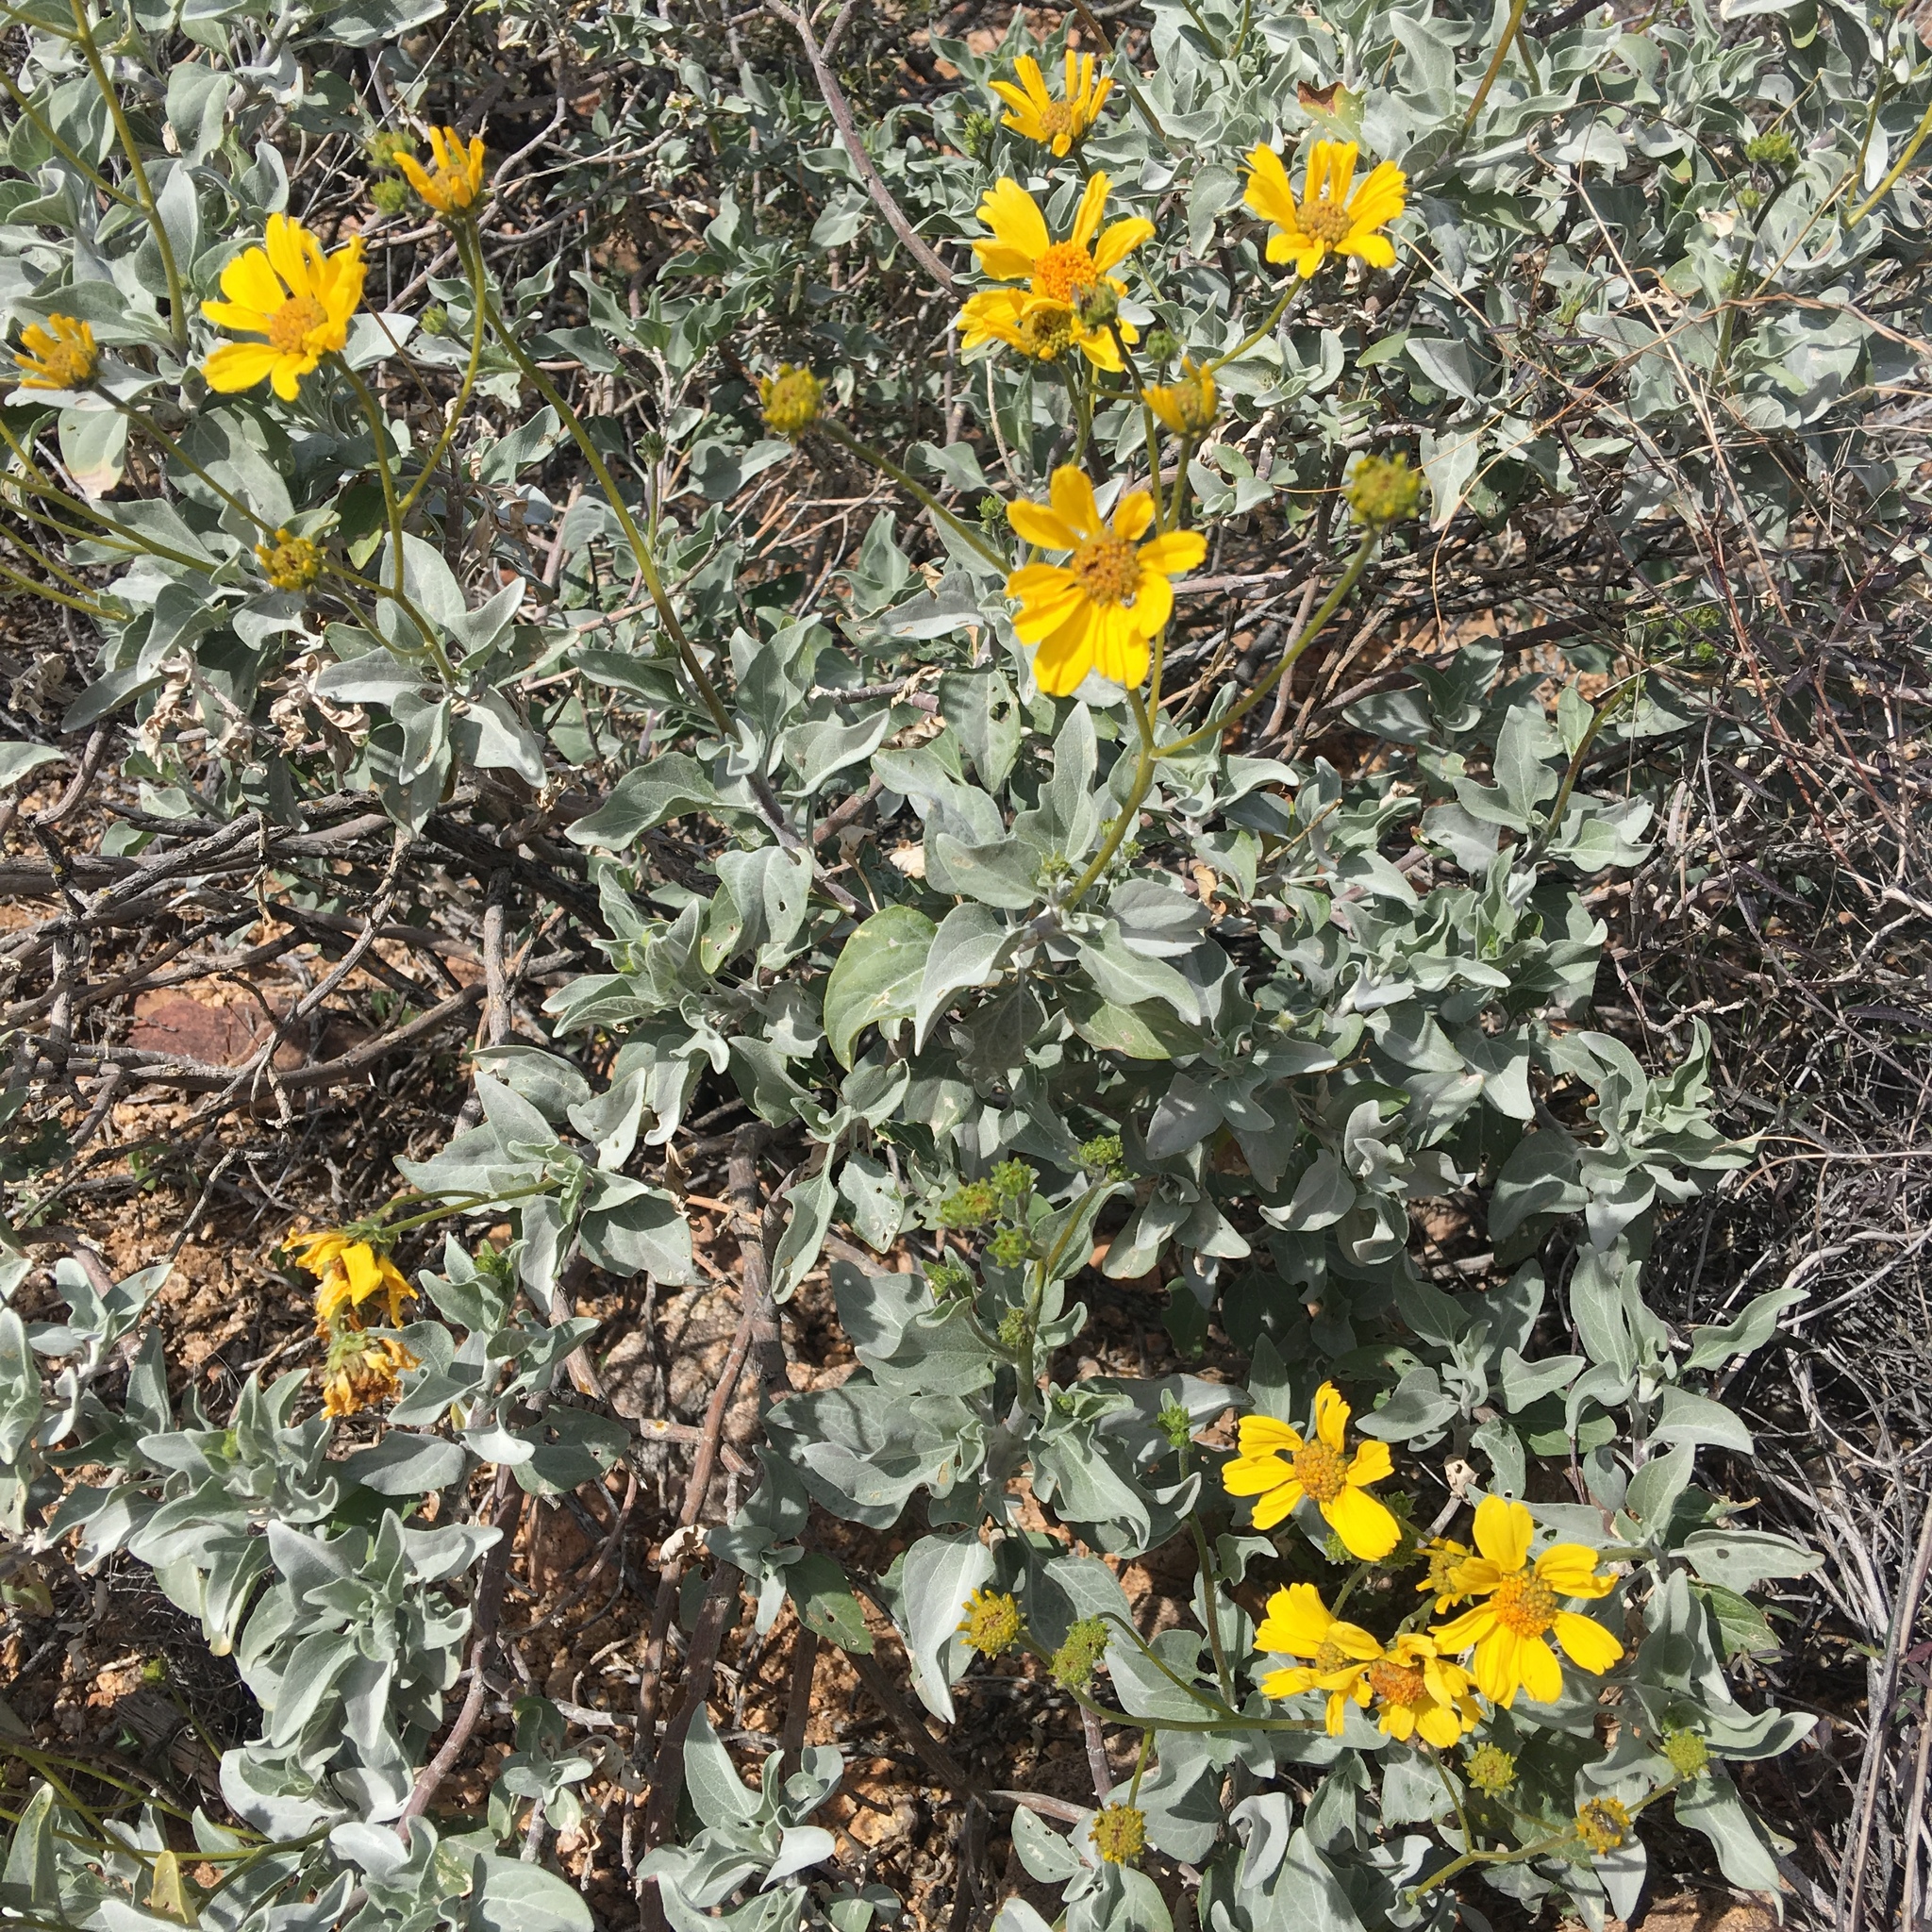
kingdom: Plantae
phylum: Tracheophyta
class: Magnoliopsida
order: Asterales
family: Asteraceae
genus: Encelia
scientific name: Encelia farinosa
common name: Brittlebush
